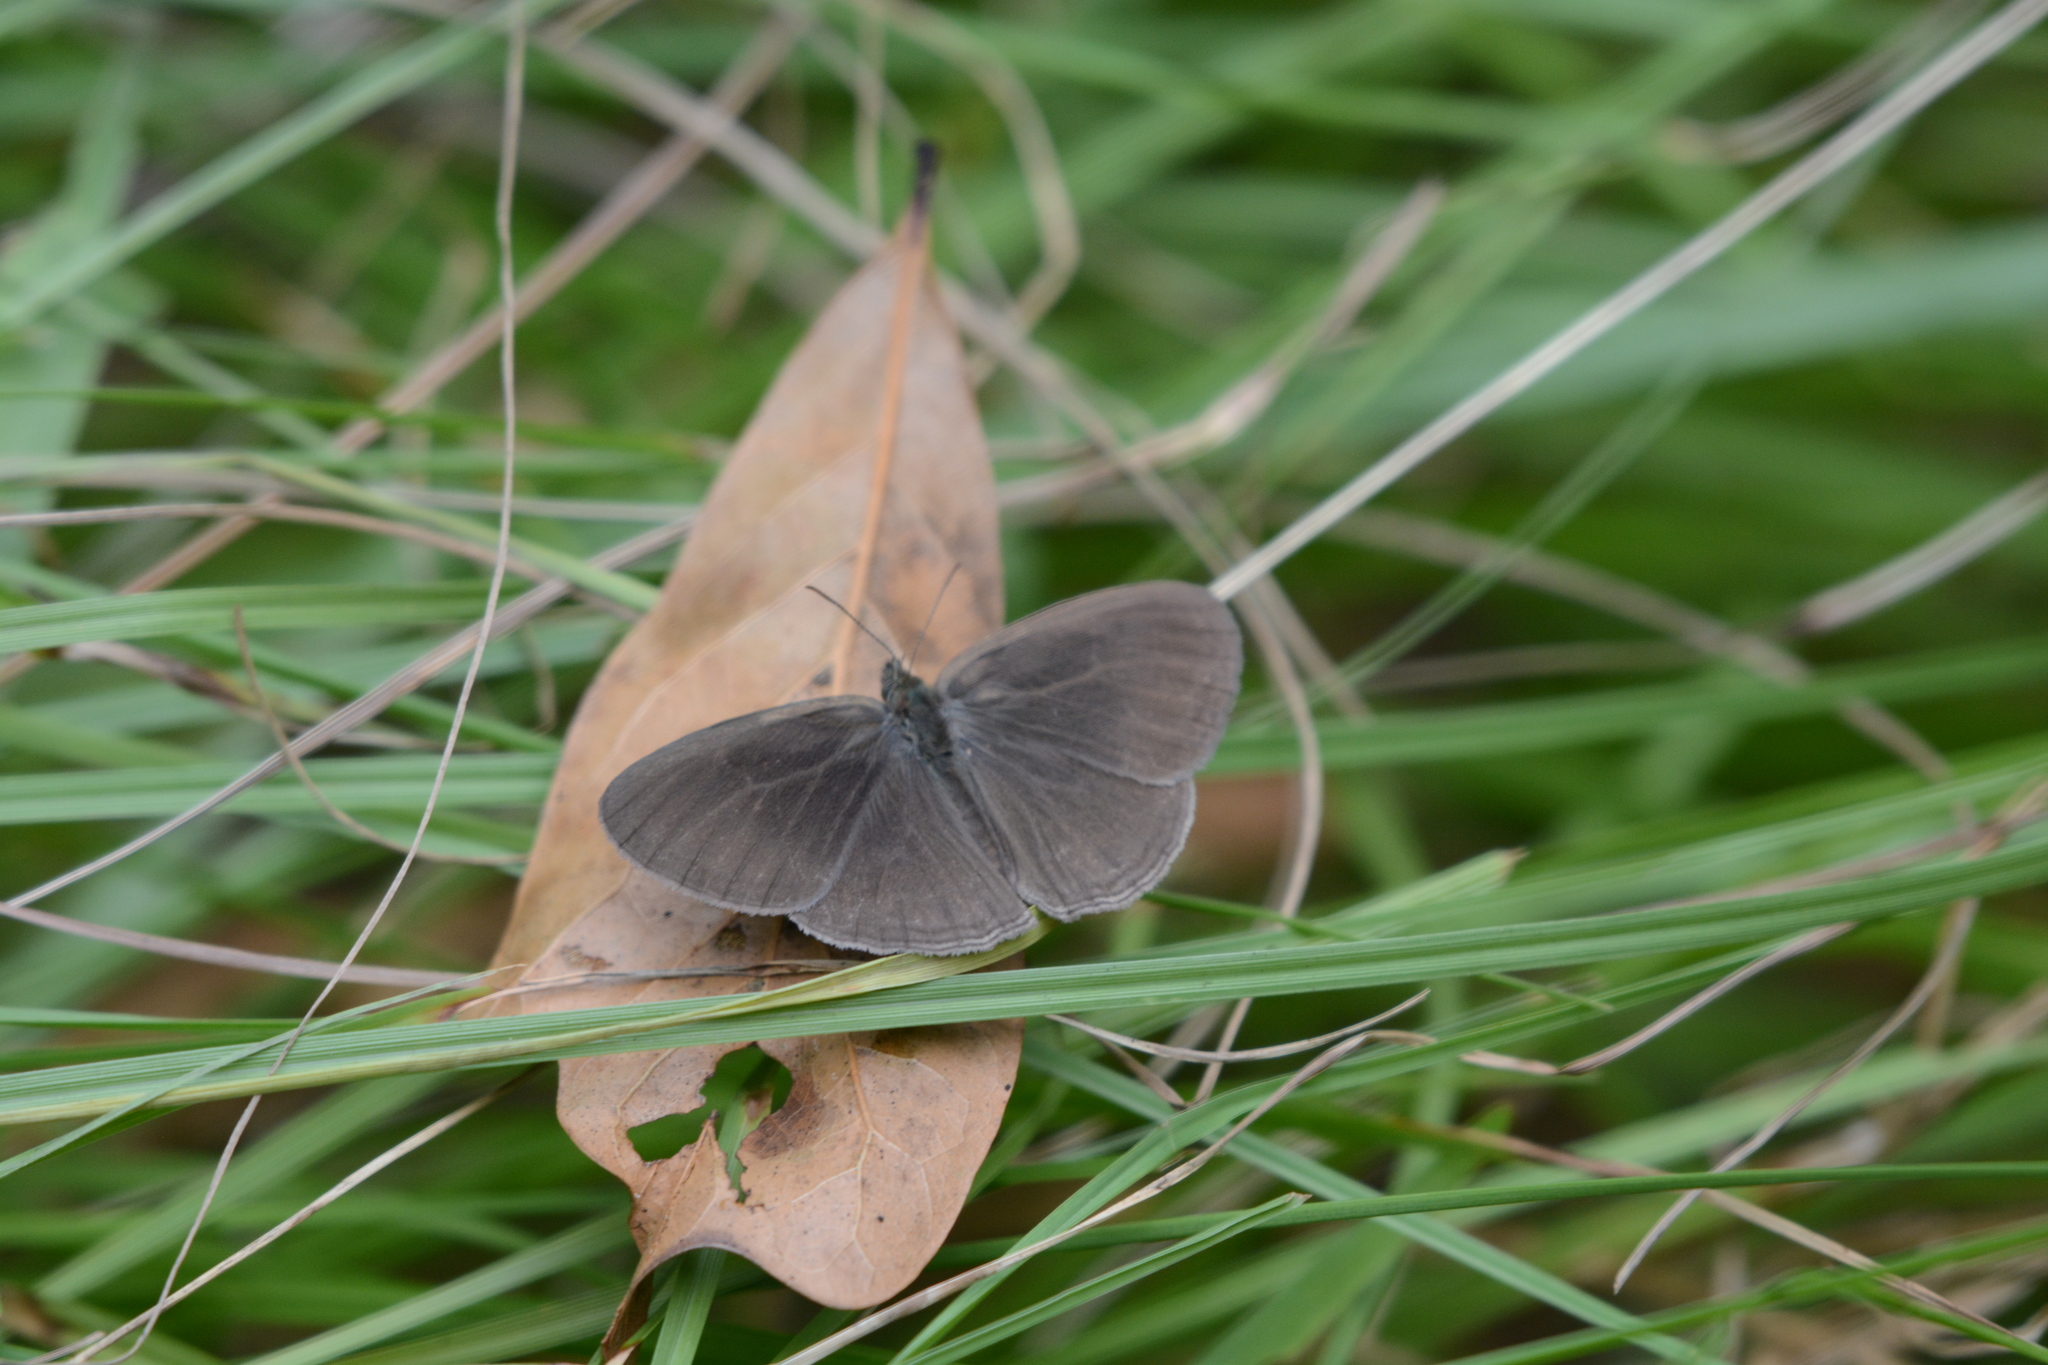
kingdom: Animalia
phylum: Arthropoda
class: Insecta
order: Lepidoptera
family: Nymphalidae
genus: Hermeuptychia
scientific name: Hermeuptychia hermes
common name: Hermes satyr
